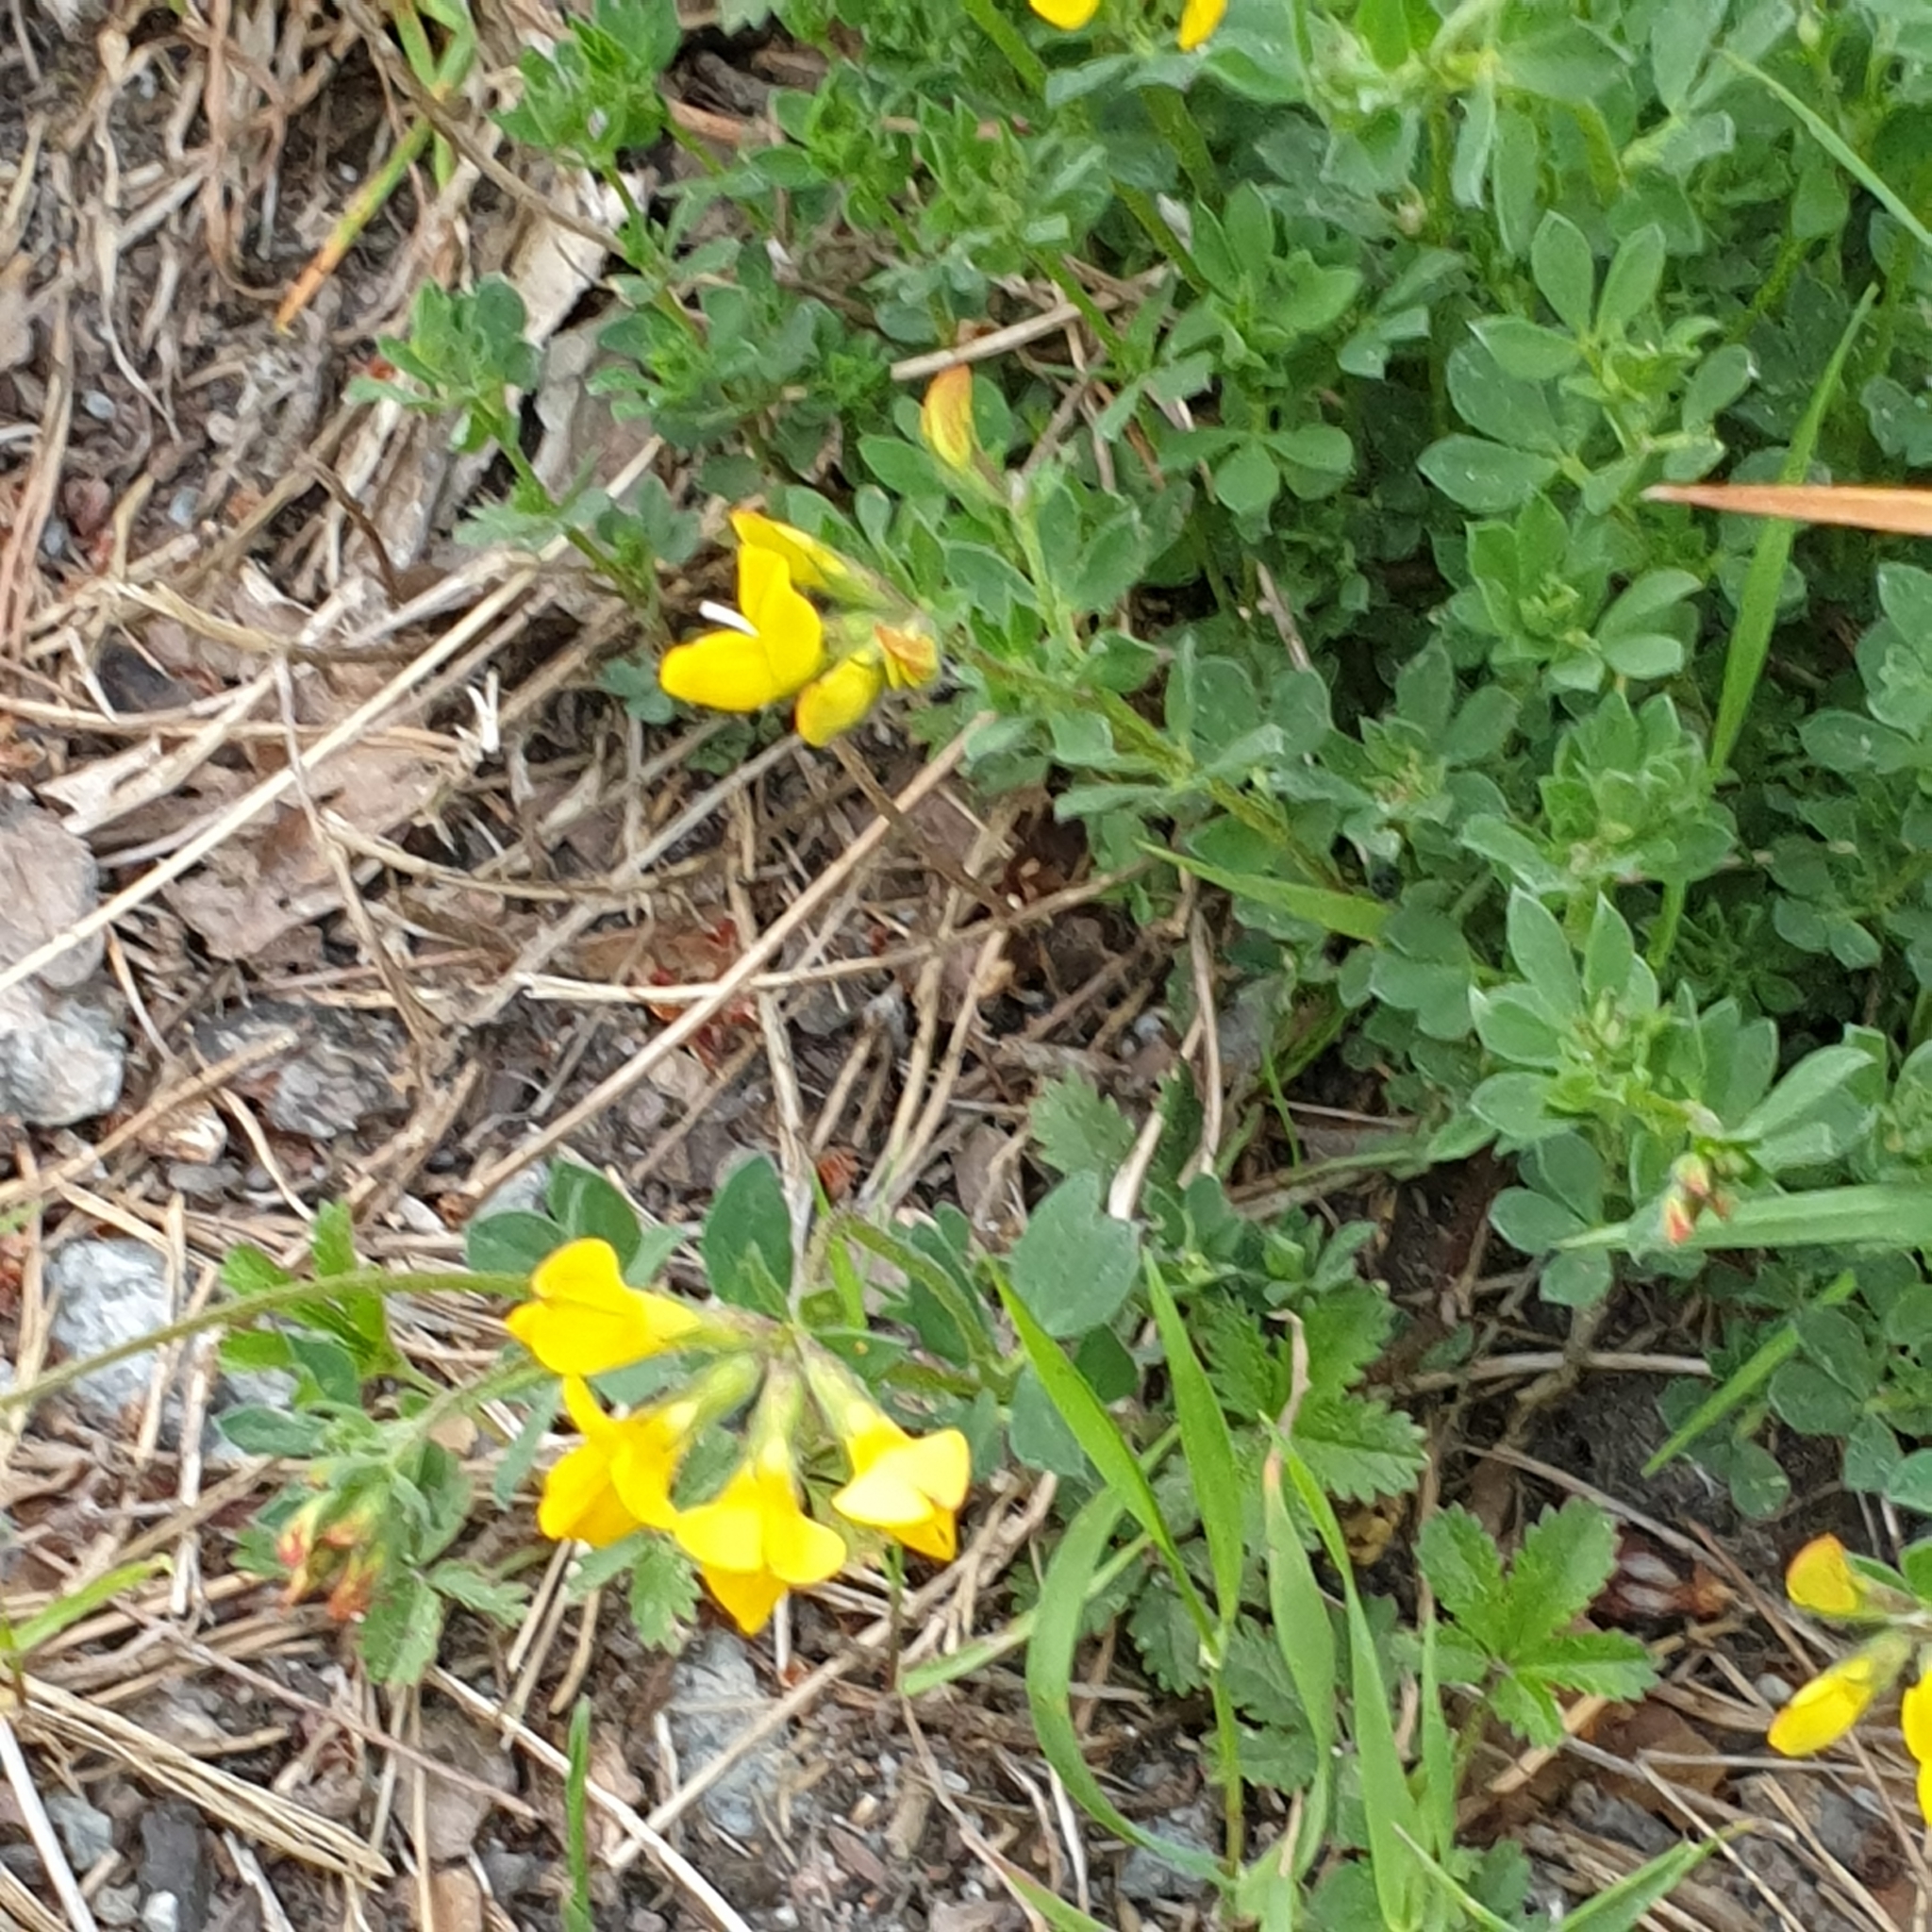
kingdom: Plantae
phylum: Tracheophyta
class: Magnoliopsida
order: Fabales
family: Fabaceae
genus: Lotus
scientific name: Lotus corniculatus
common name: Common bird's-foot-trefoil
